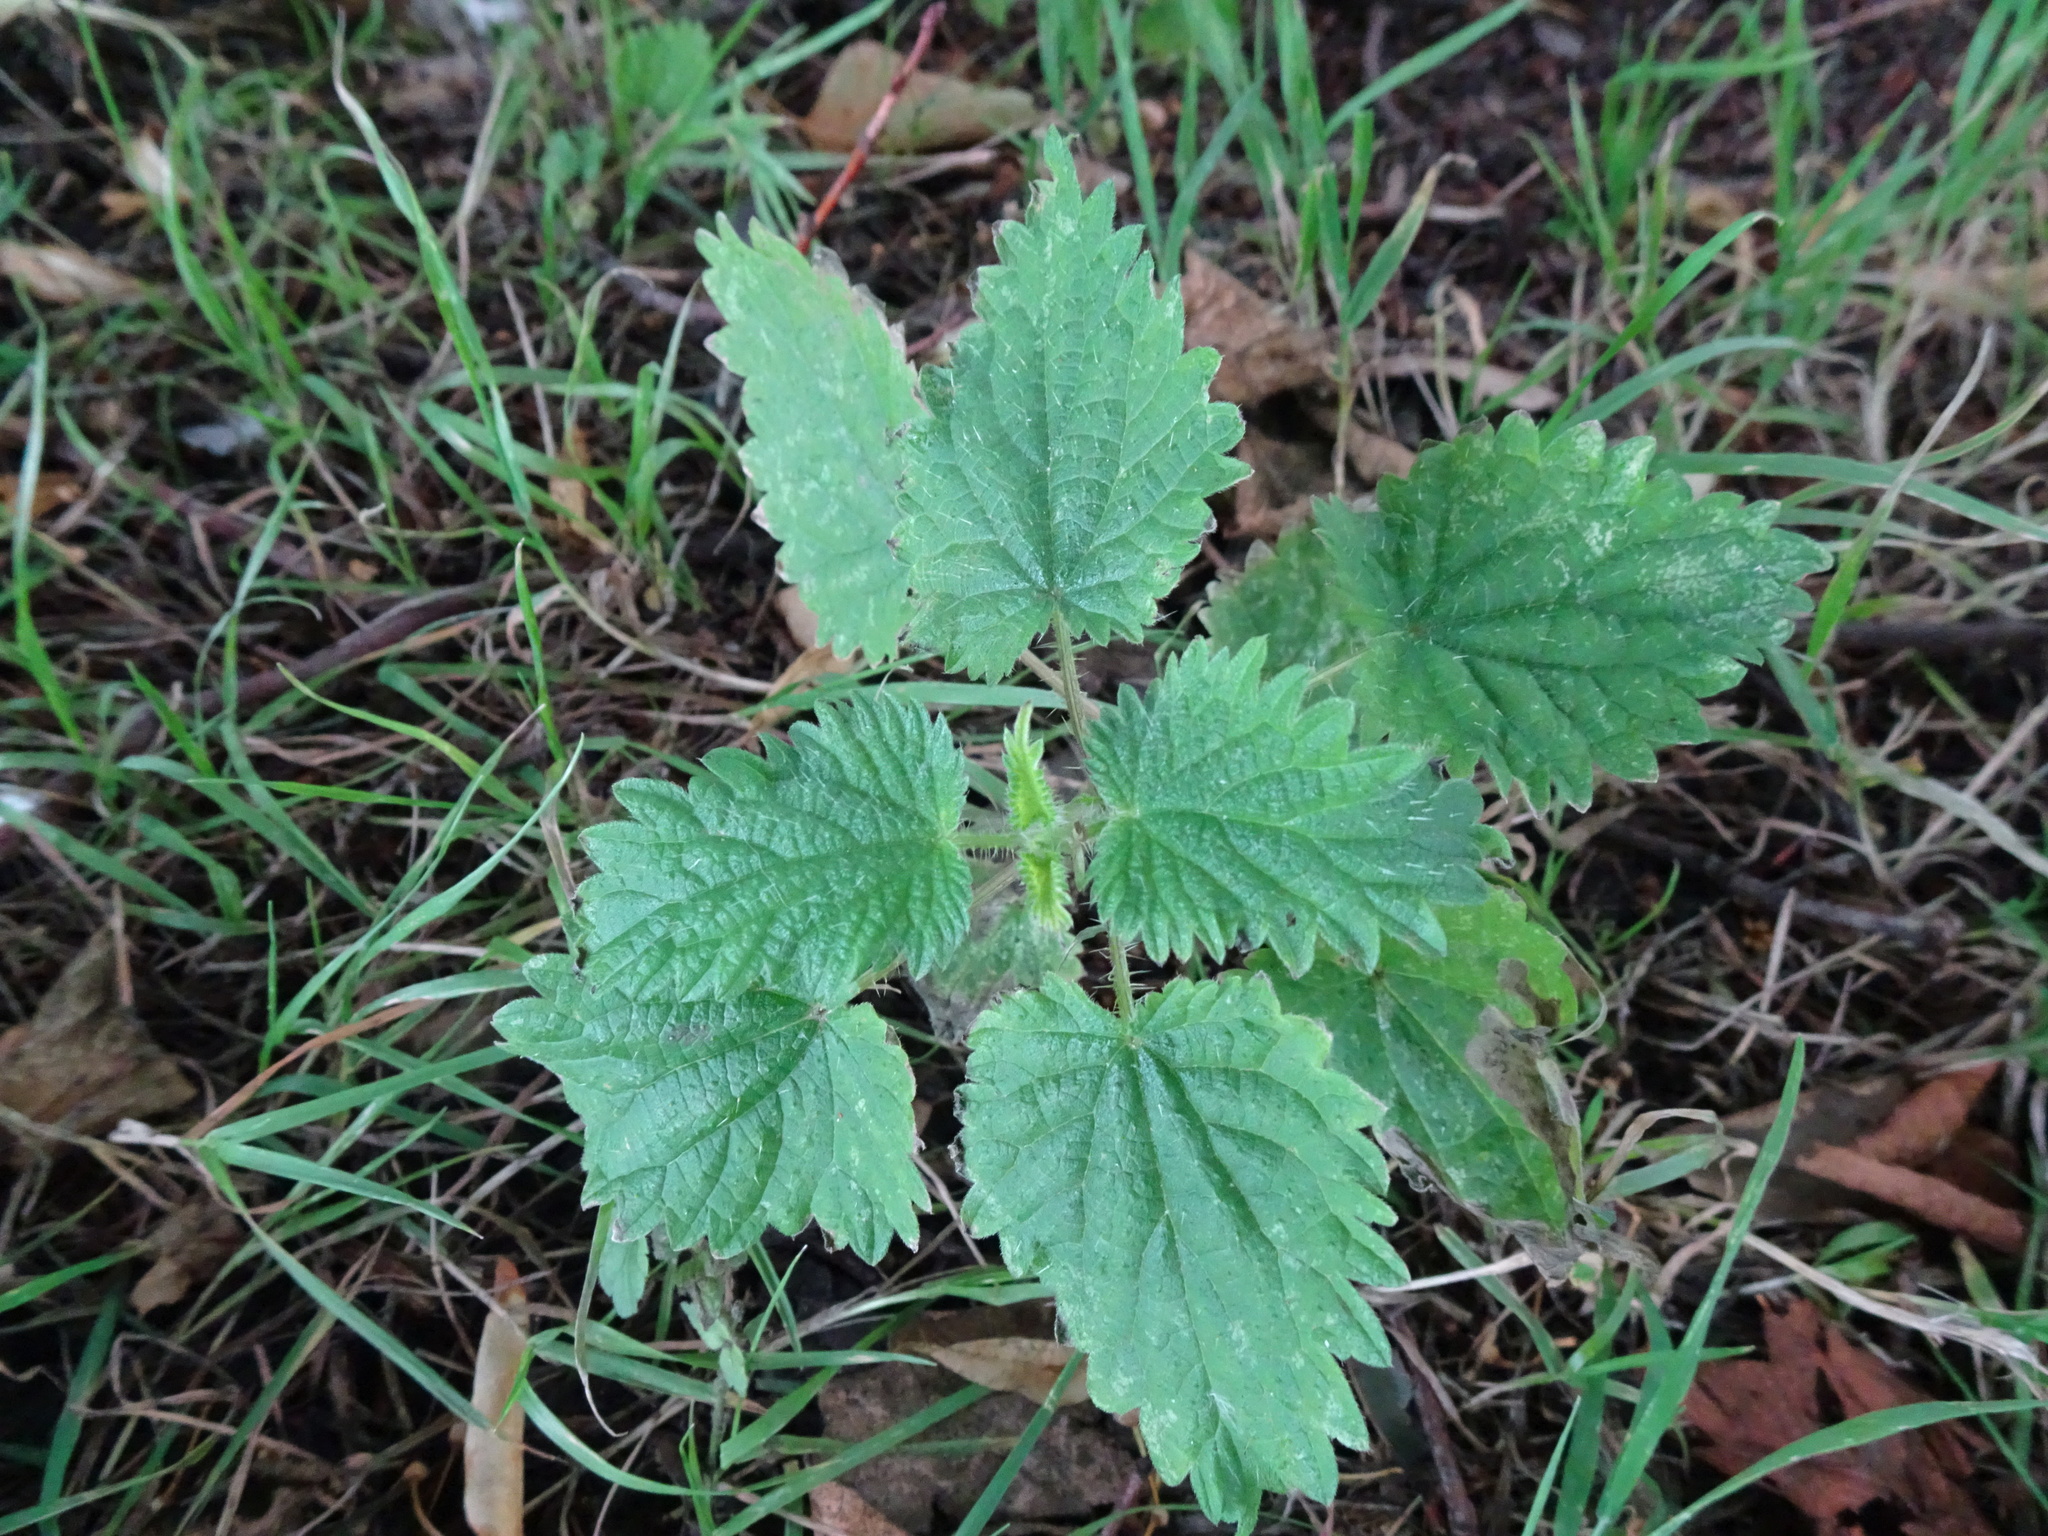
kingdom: Plantae
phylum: Tracheophyta
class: Magnoliopsida
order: Rosales
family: Urticaceae
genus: Urtica
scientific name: Urtica dioica
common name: Common nettle
